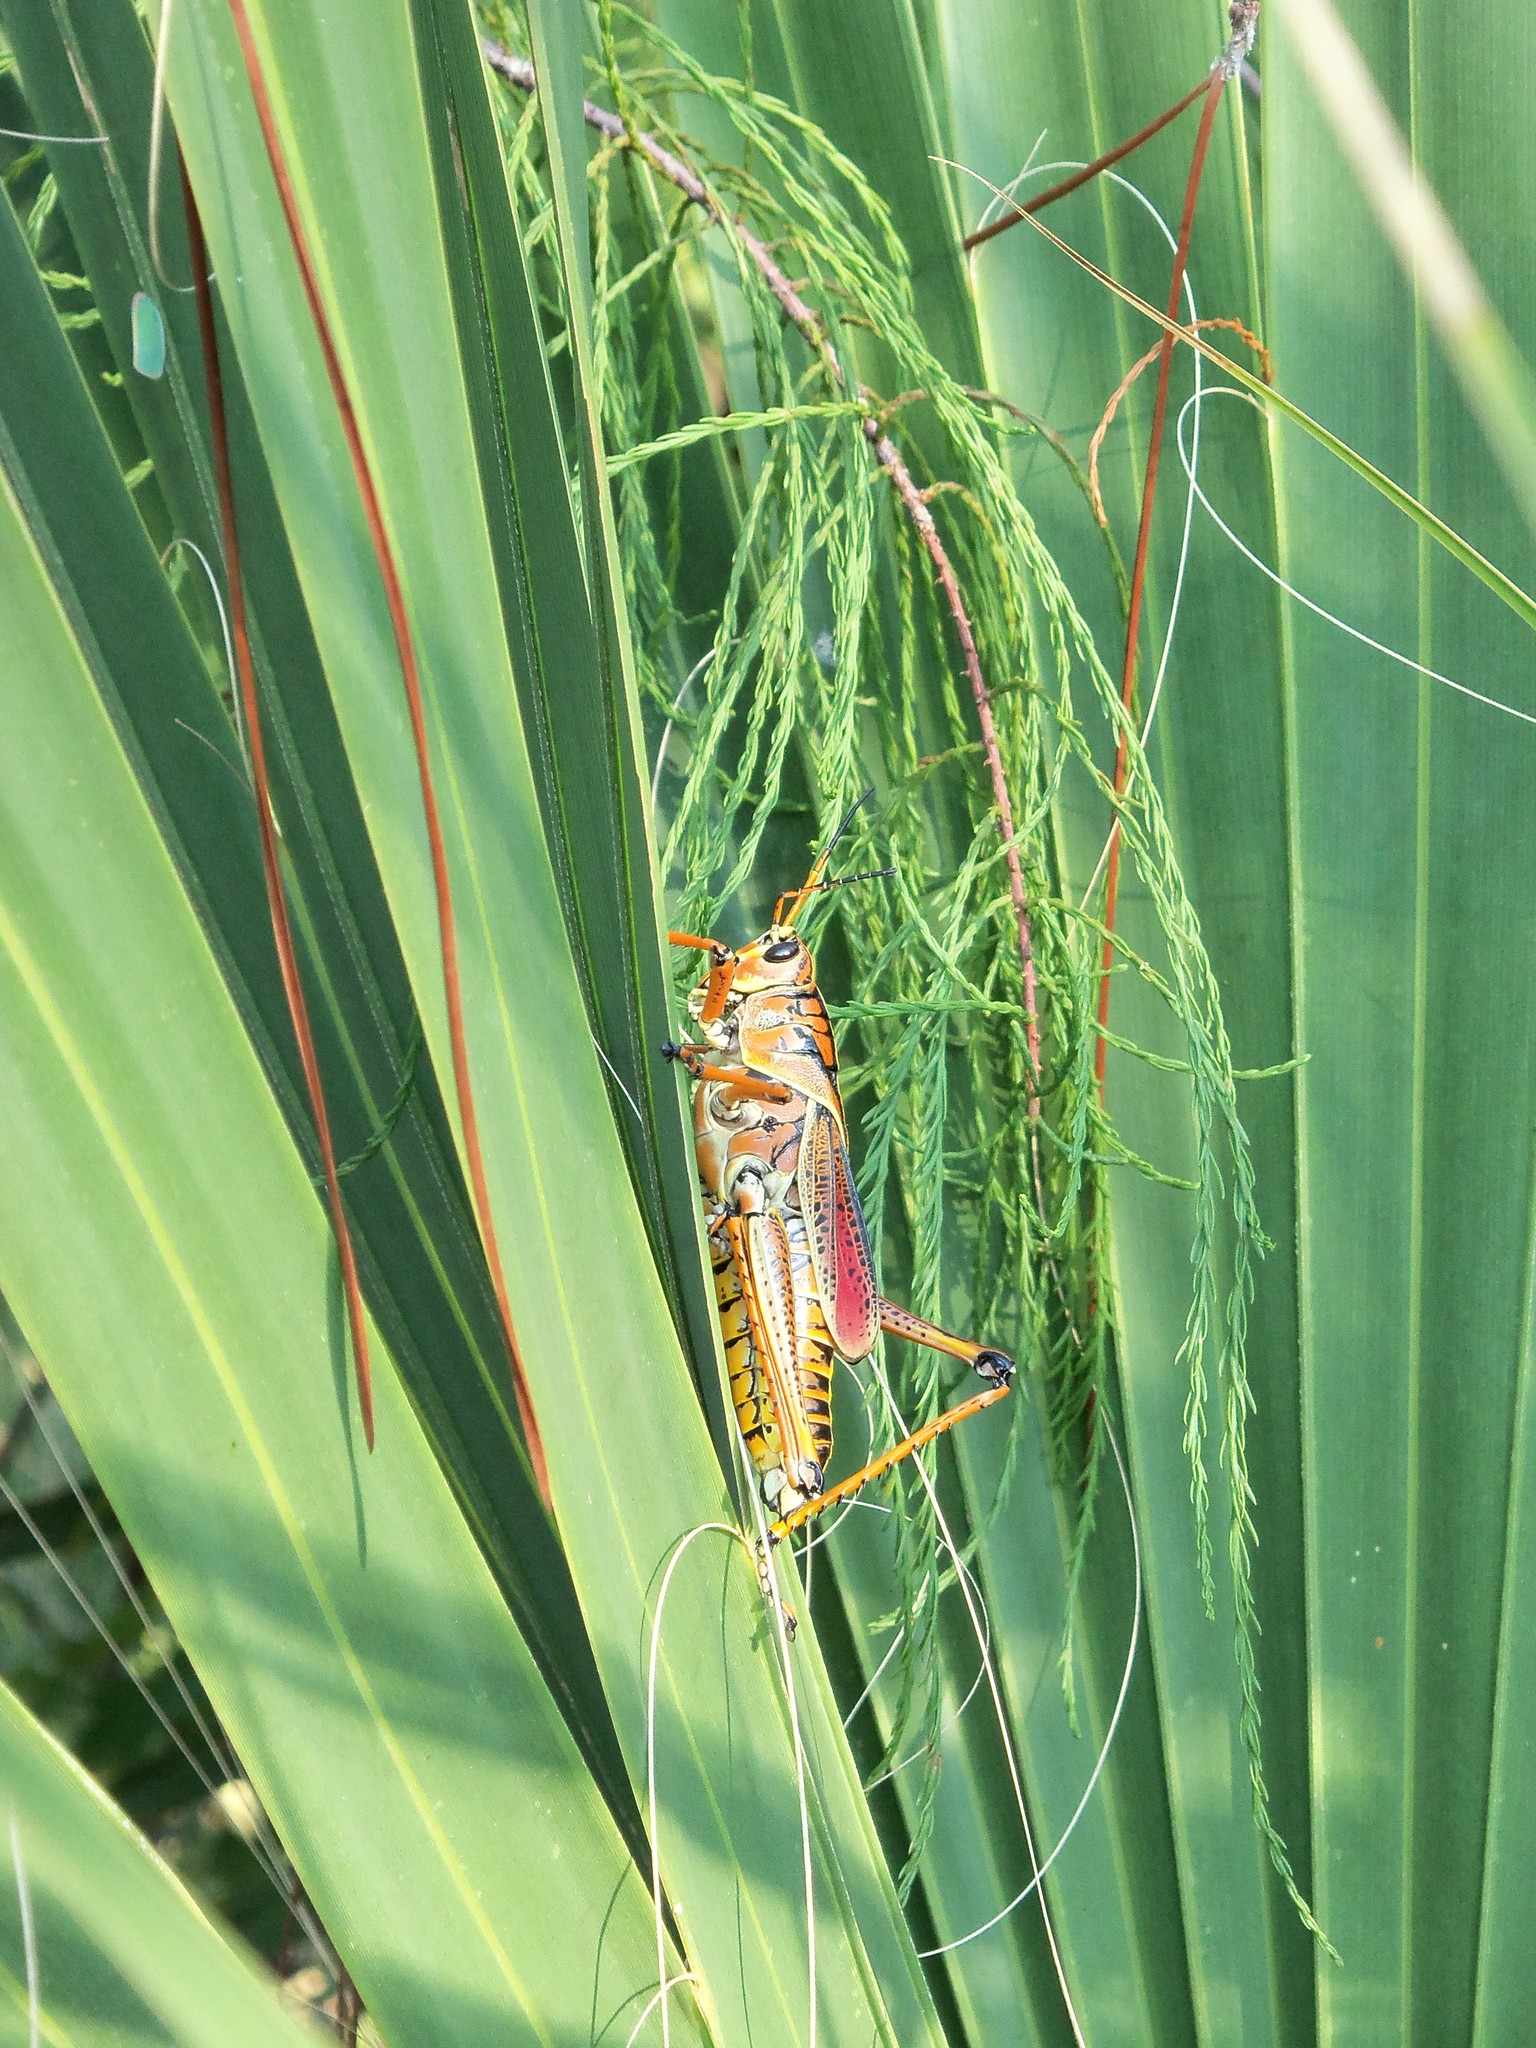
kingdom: Animalia
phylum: Arthropoda
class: Insecta
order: Orthoptera
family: Romaleidae
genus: Romalea
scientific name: Romalea microptera
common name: Eastern lubber grasshopper
